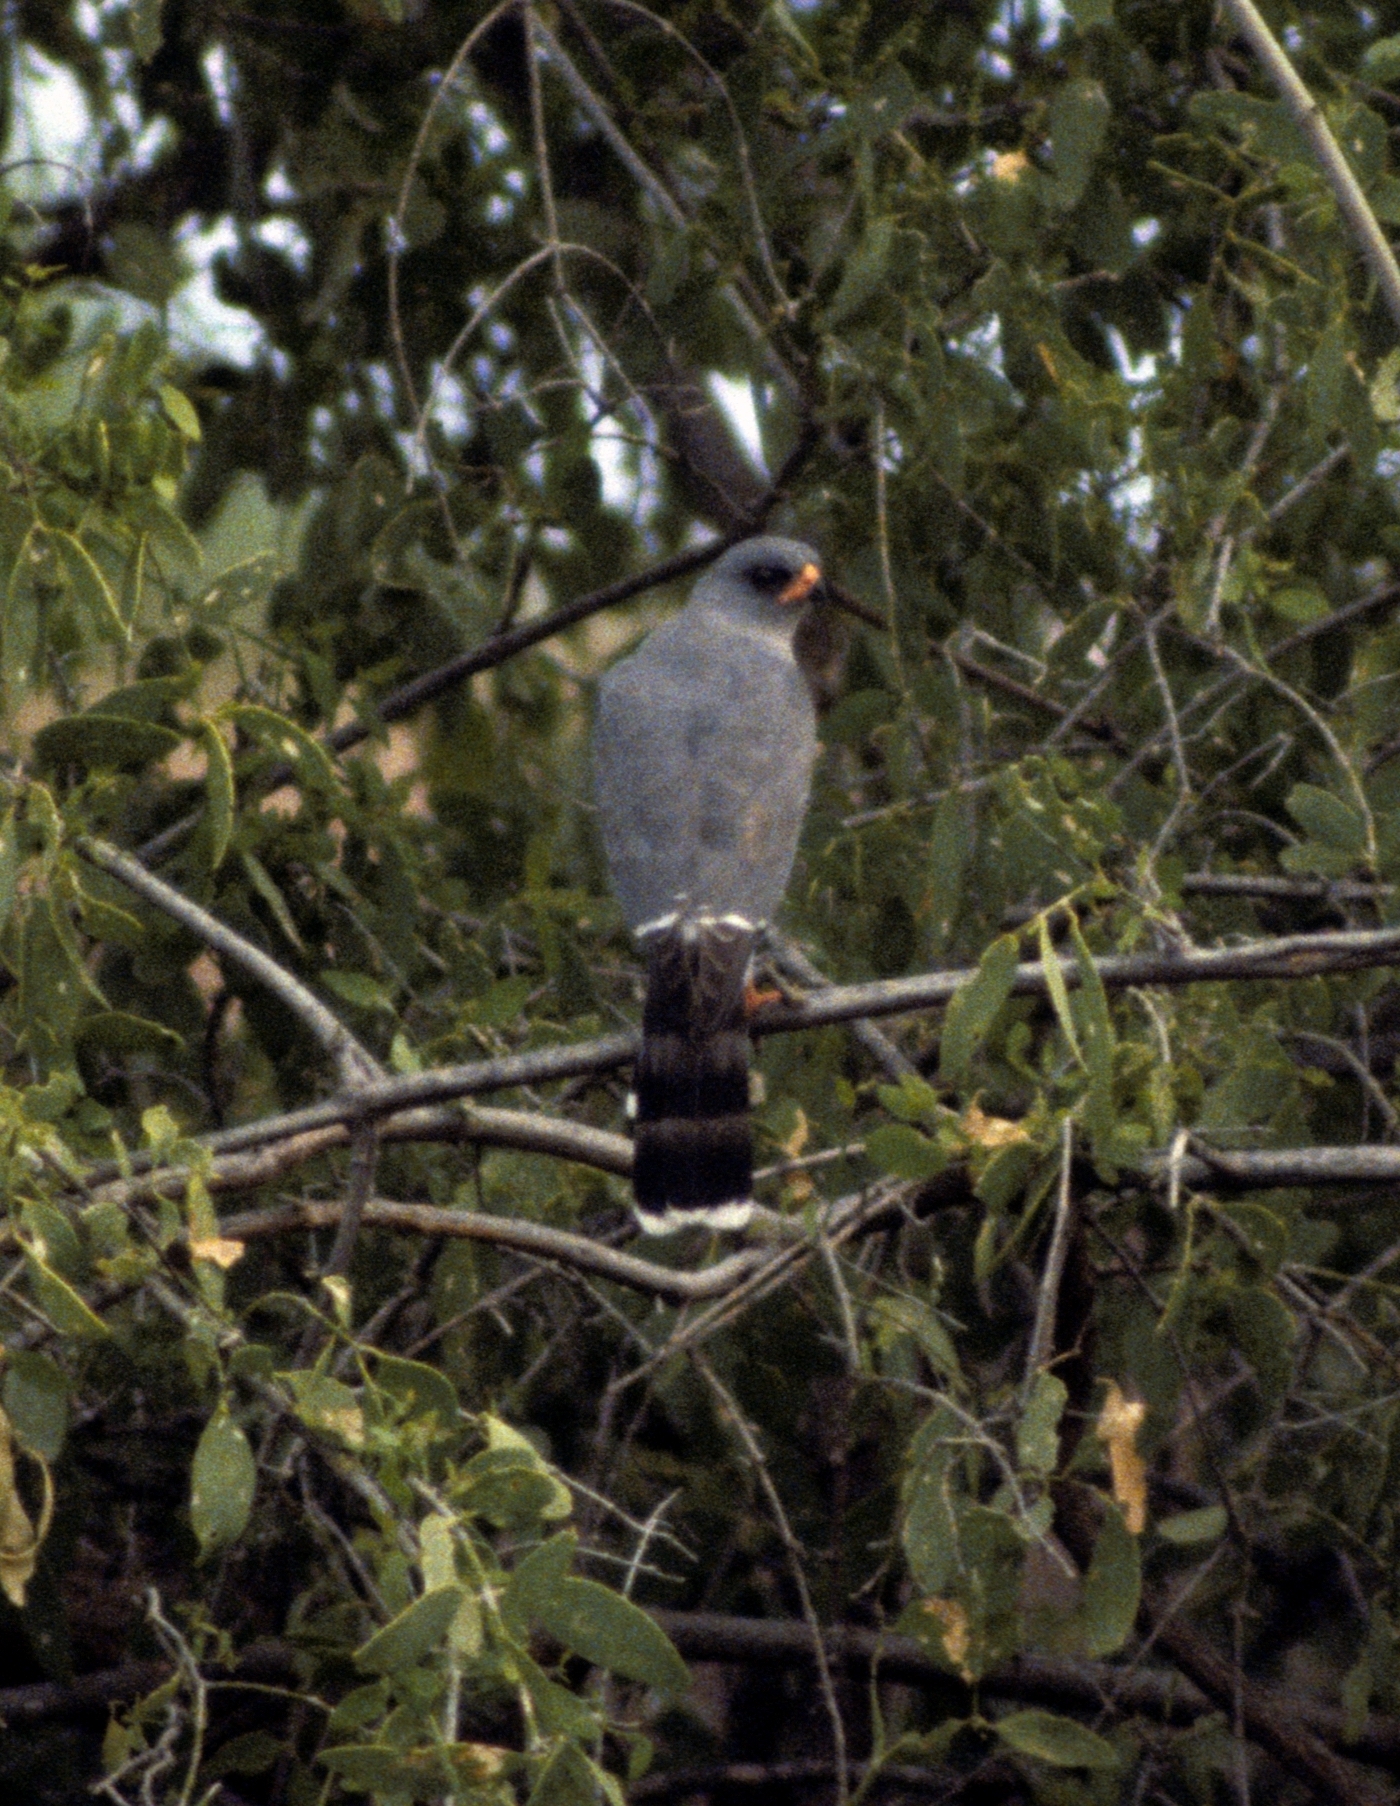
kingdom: Animalia
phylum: Chordata
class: Aves
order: Accipitriformes
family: Accipitridae
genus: Micronisus
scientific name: Micronisus gabar
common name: Gabar goshawk
